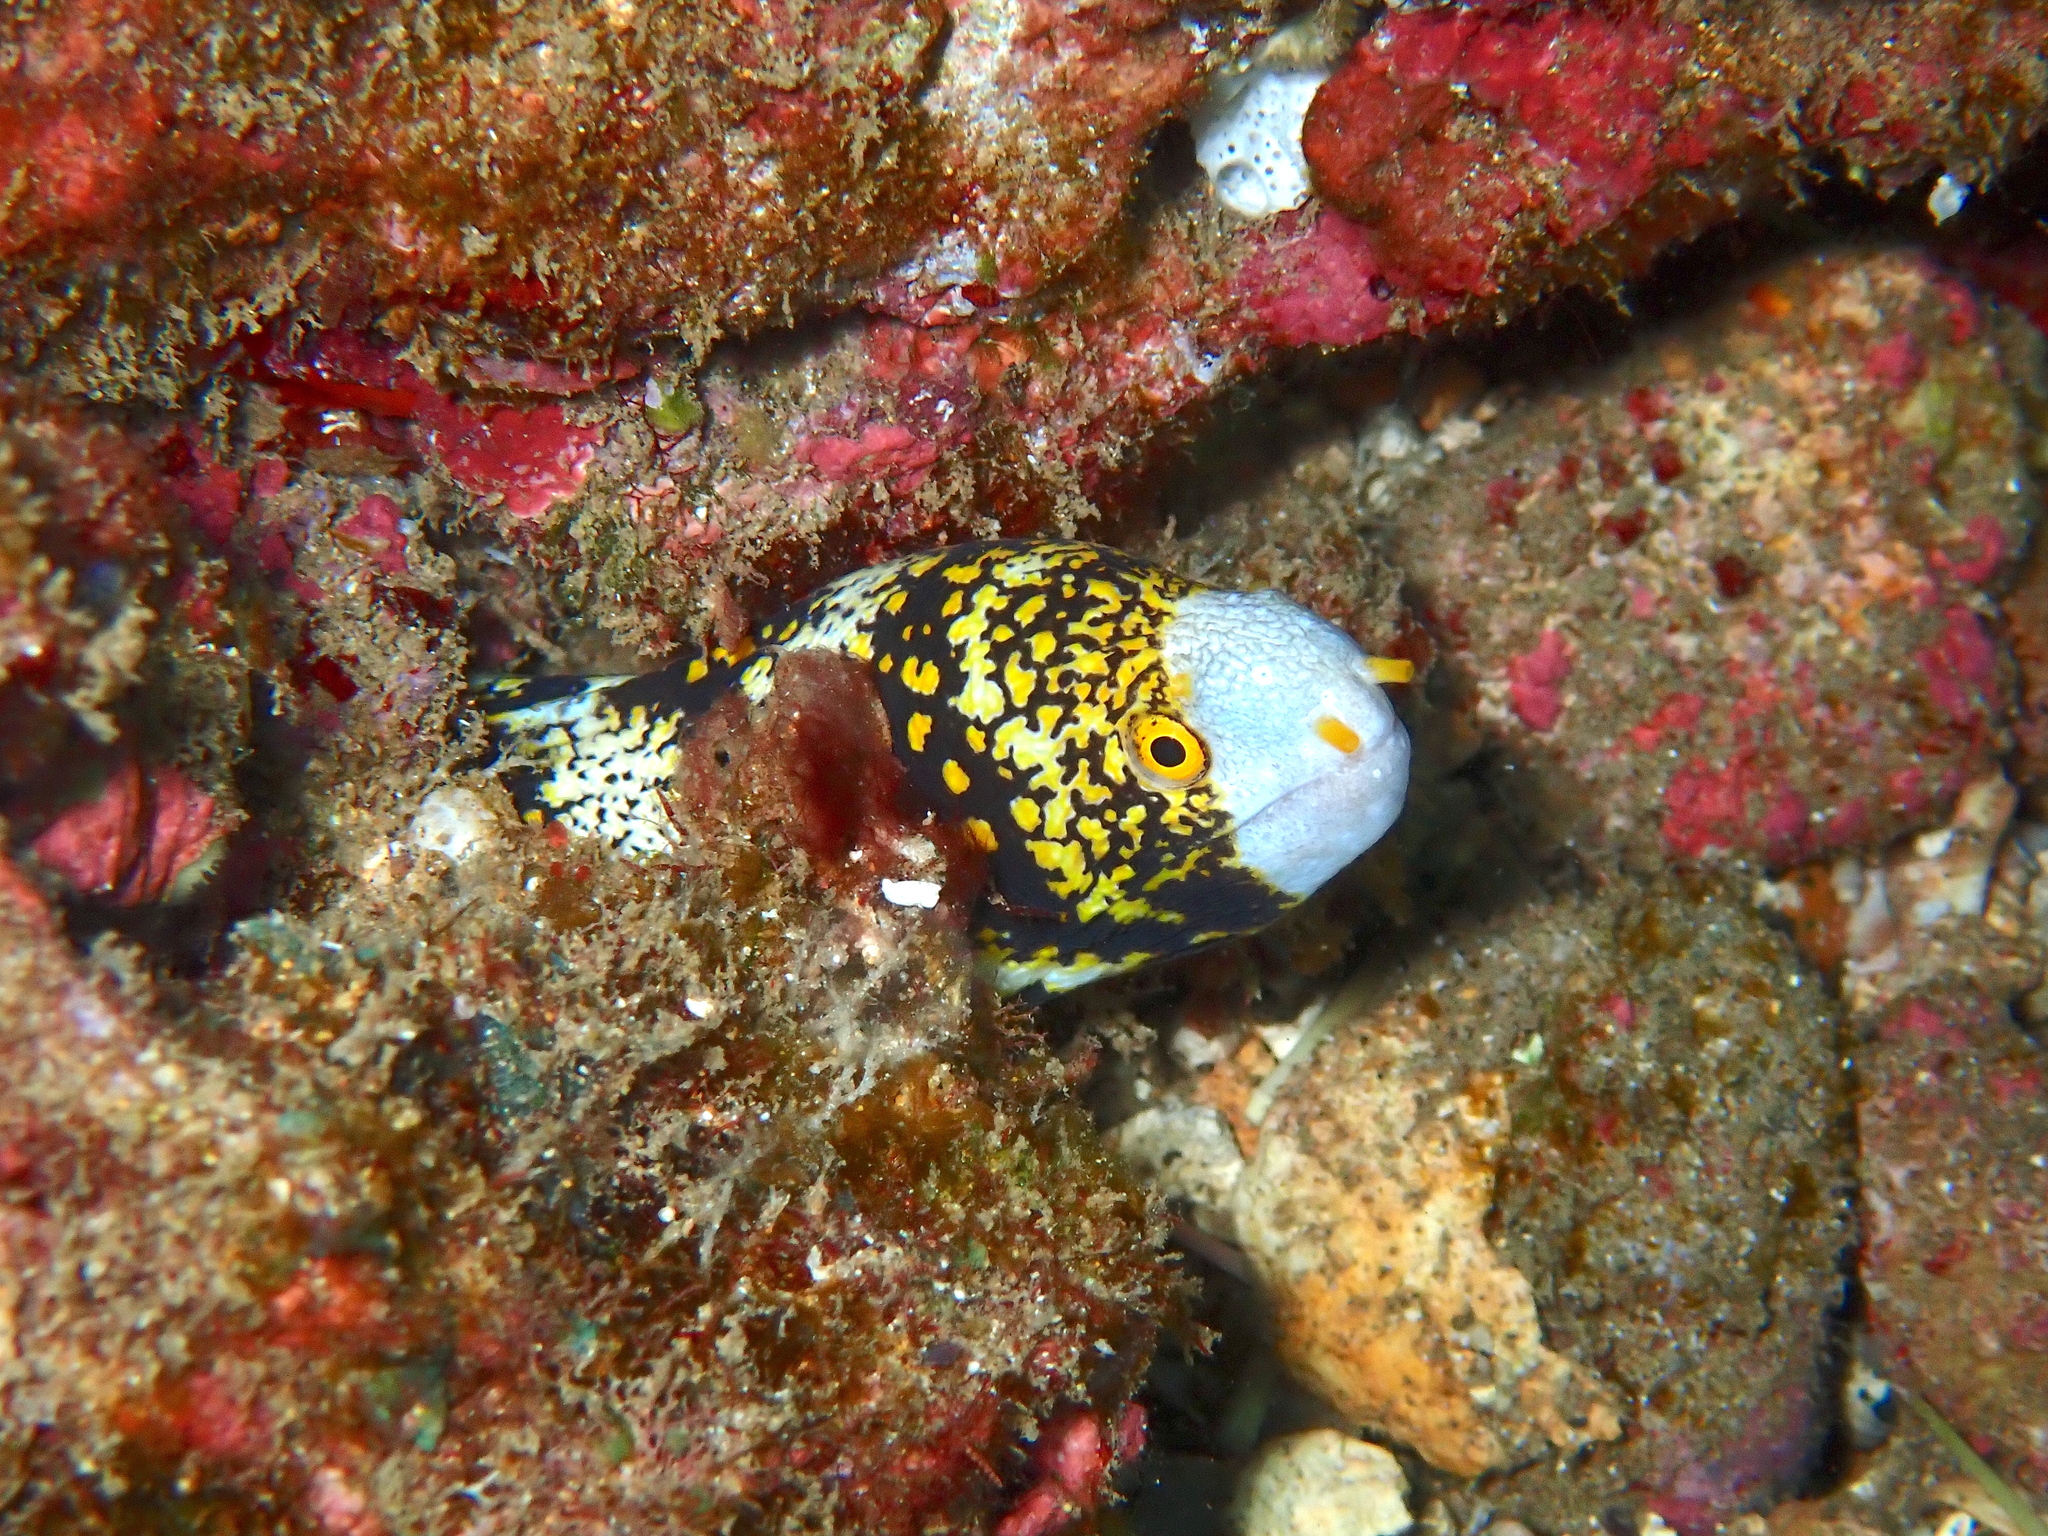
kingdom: Animalia
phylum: Chordata
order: Anguilliformes
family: Muraenidae
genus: Echidna
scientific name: Echidna nebulosa
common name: Snowflake moray
